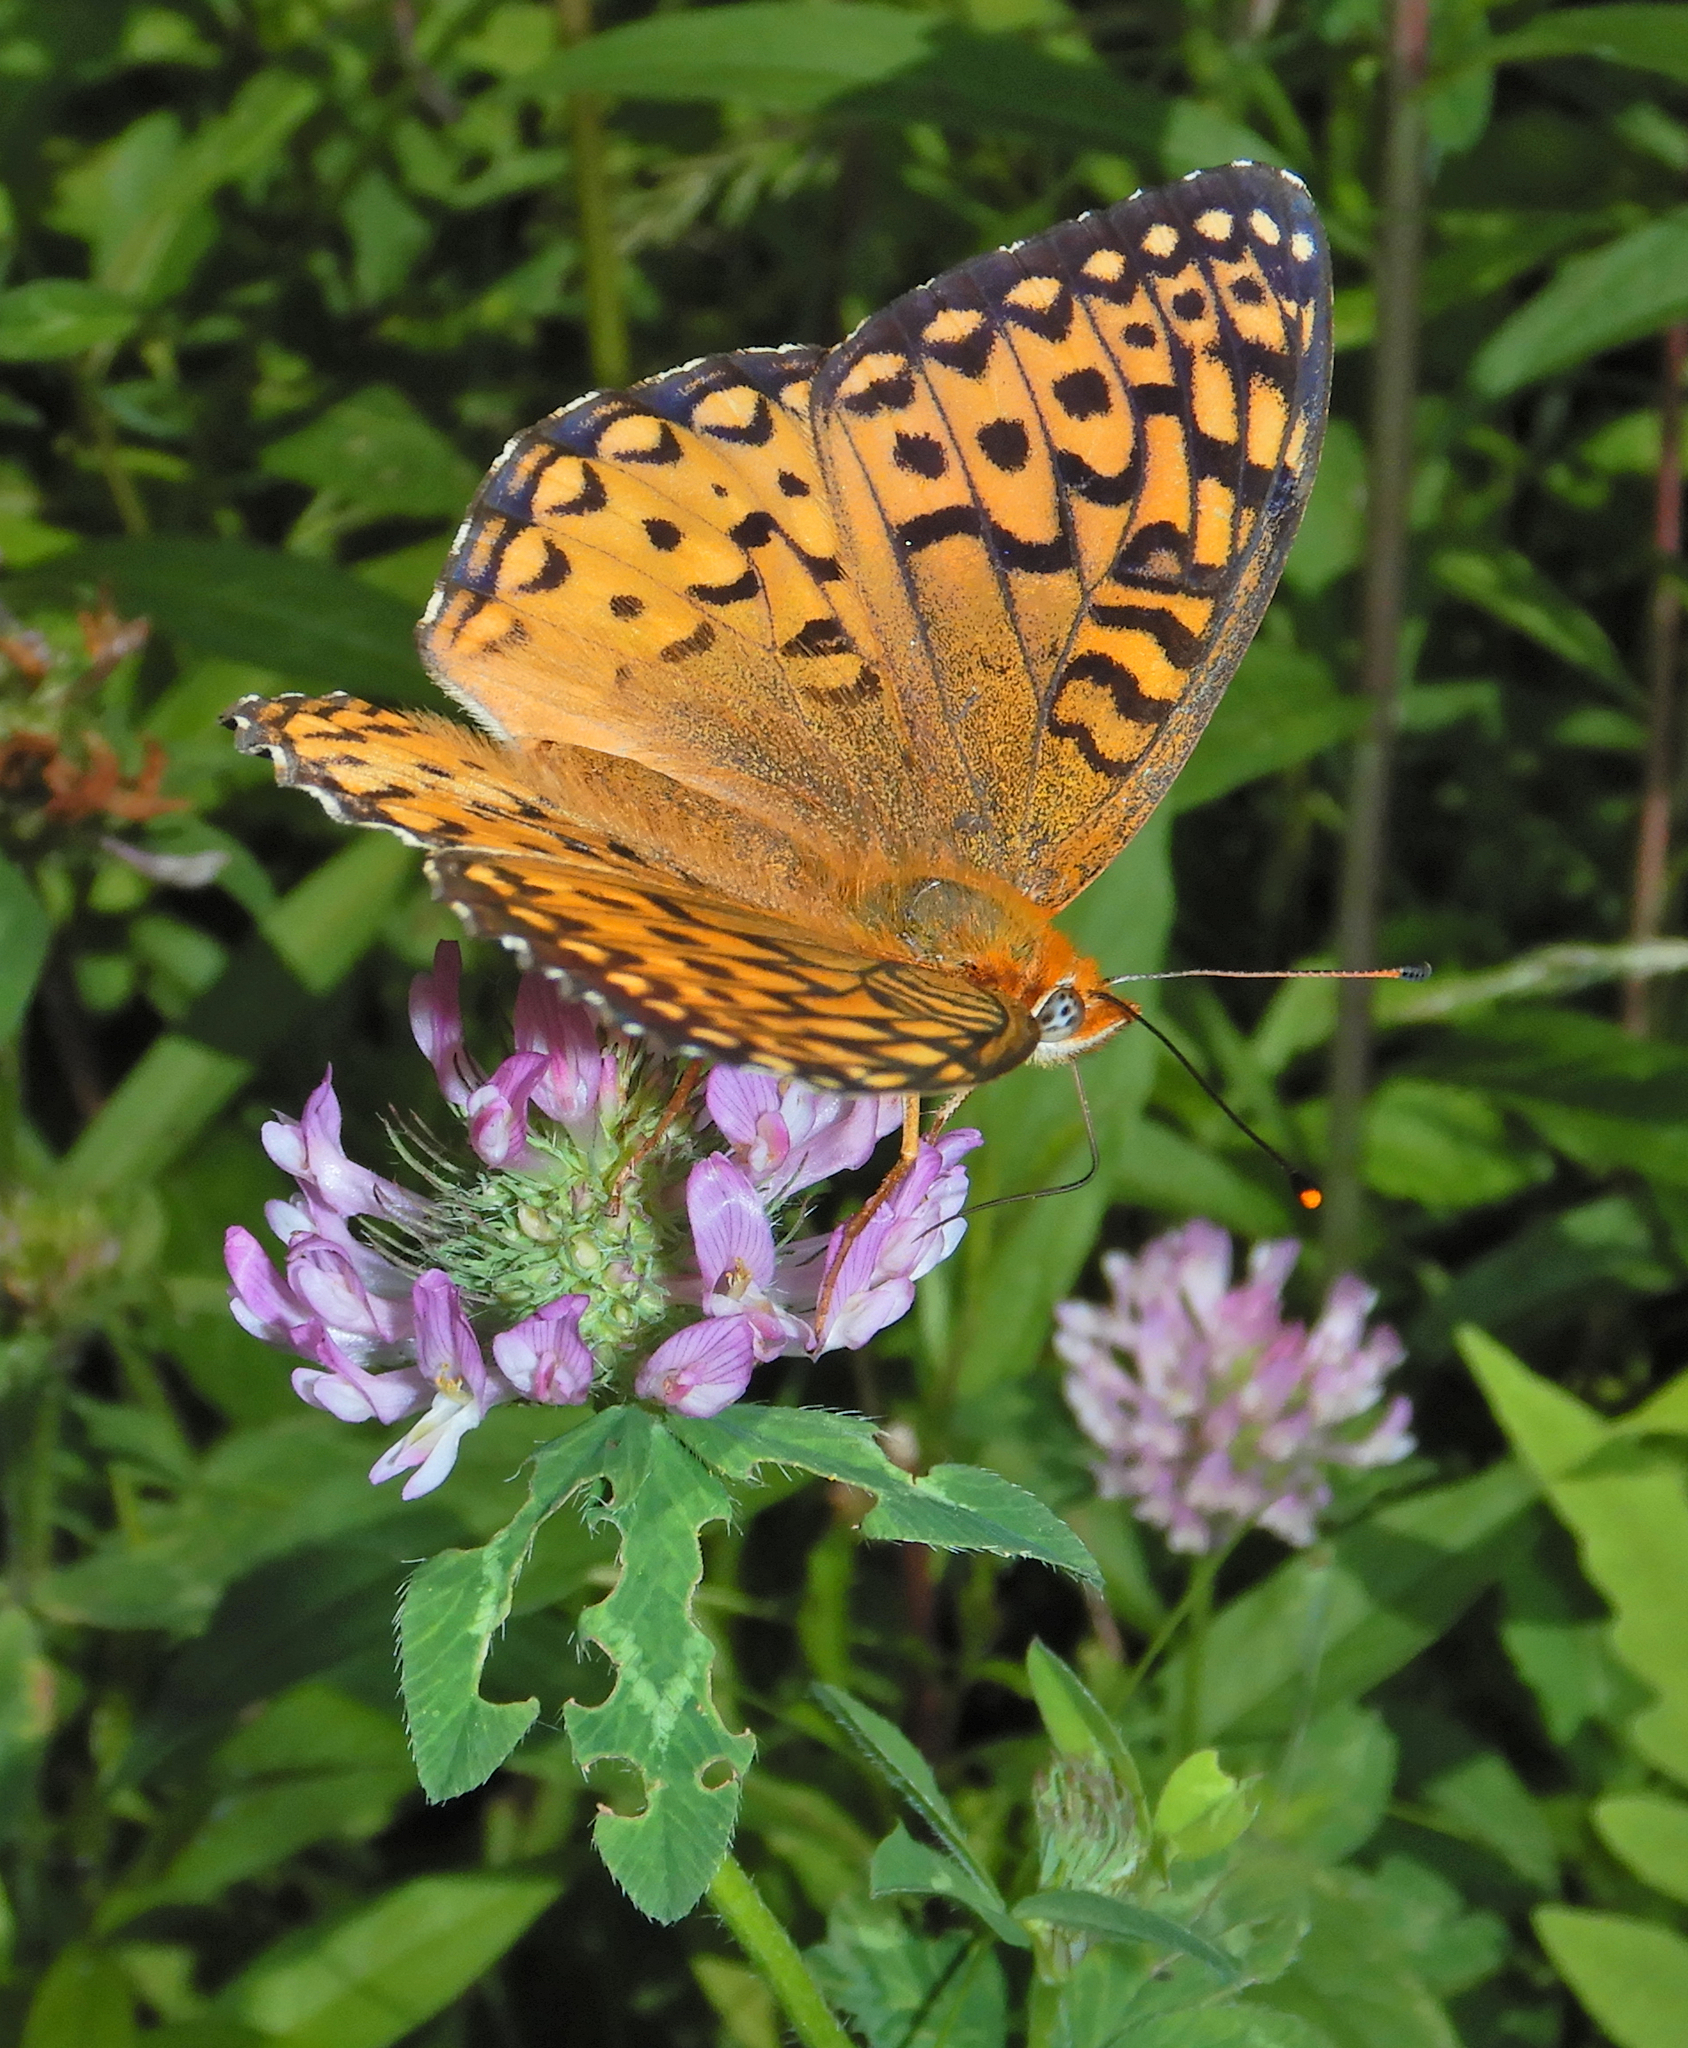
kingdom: Animalia
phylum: Arthropoda
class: Insecta
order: Lepidoptera
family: Nymphalidae
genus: Speyeria
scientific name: Speyeria atlantis
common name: Atlantis fritillary
